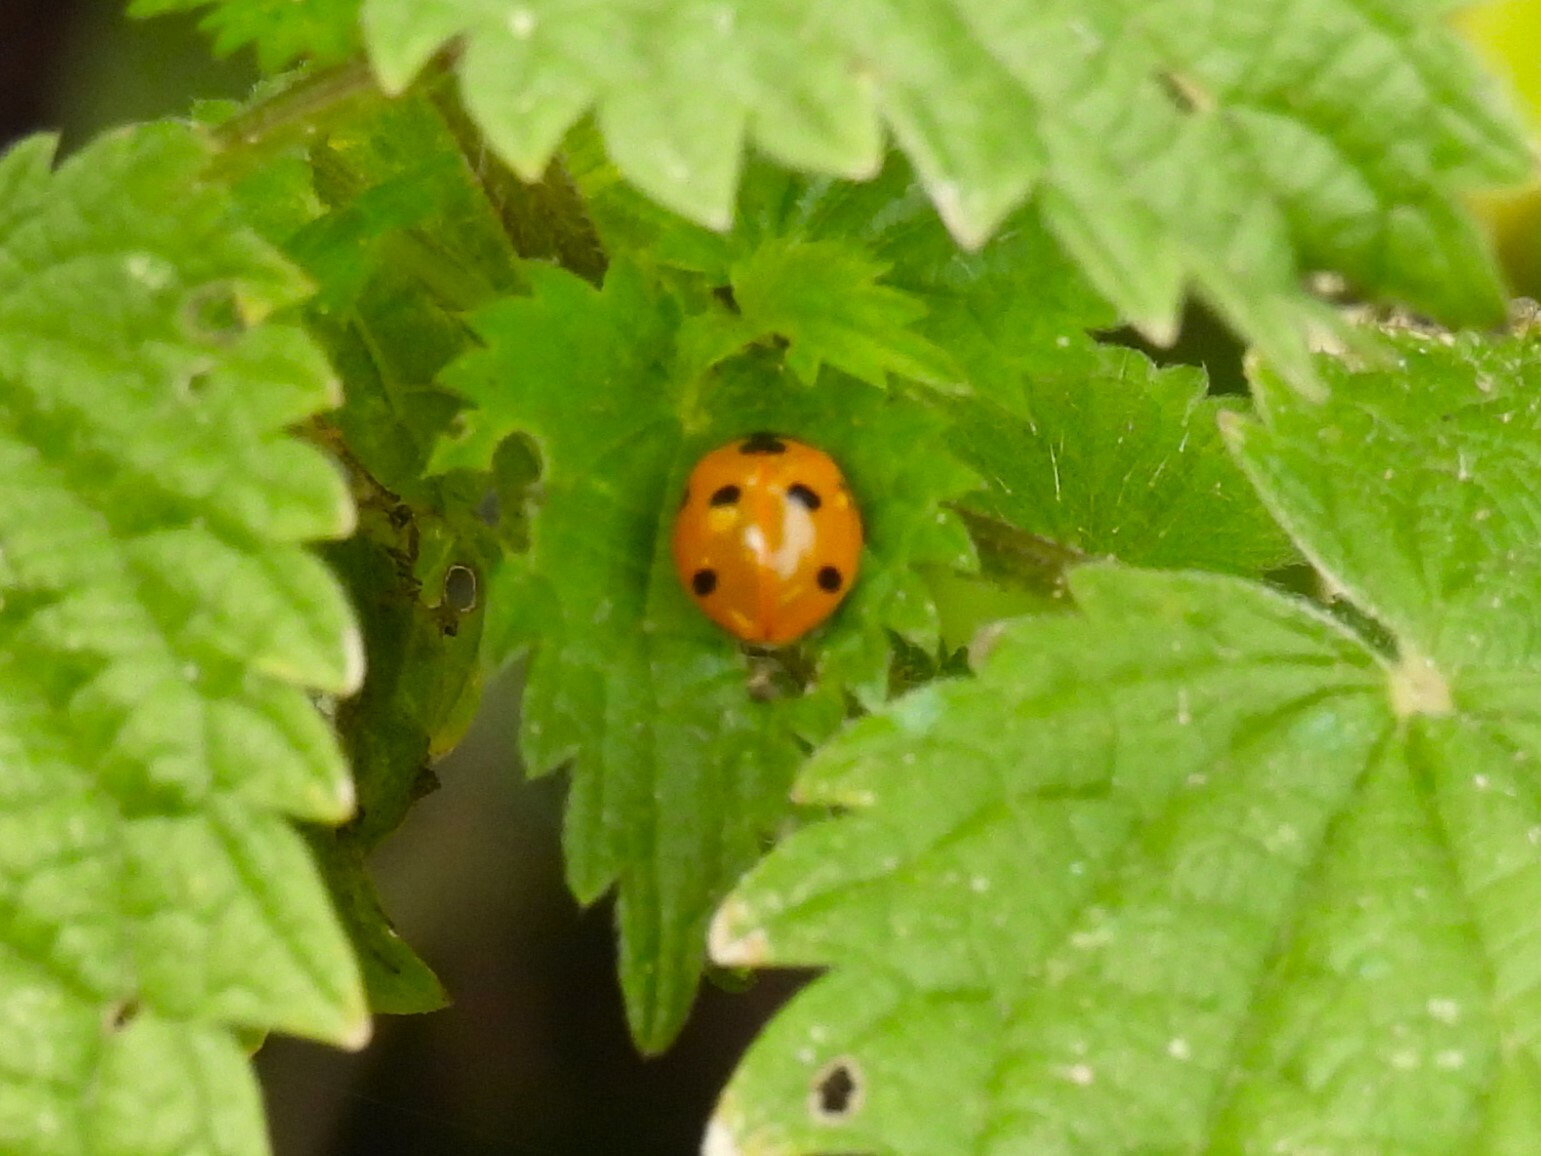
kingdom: Animalia
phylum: Arthropoda
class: Insecta
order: Coleoptera
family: Coccinellidae
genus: Coccinella
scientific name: Coccinella septempunctata
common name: Sevenspotted lady beetle
